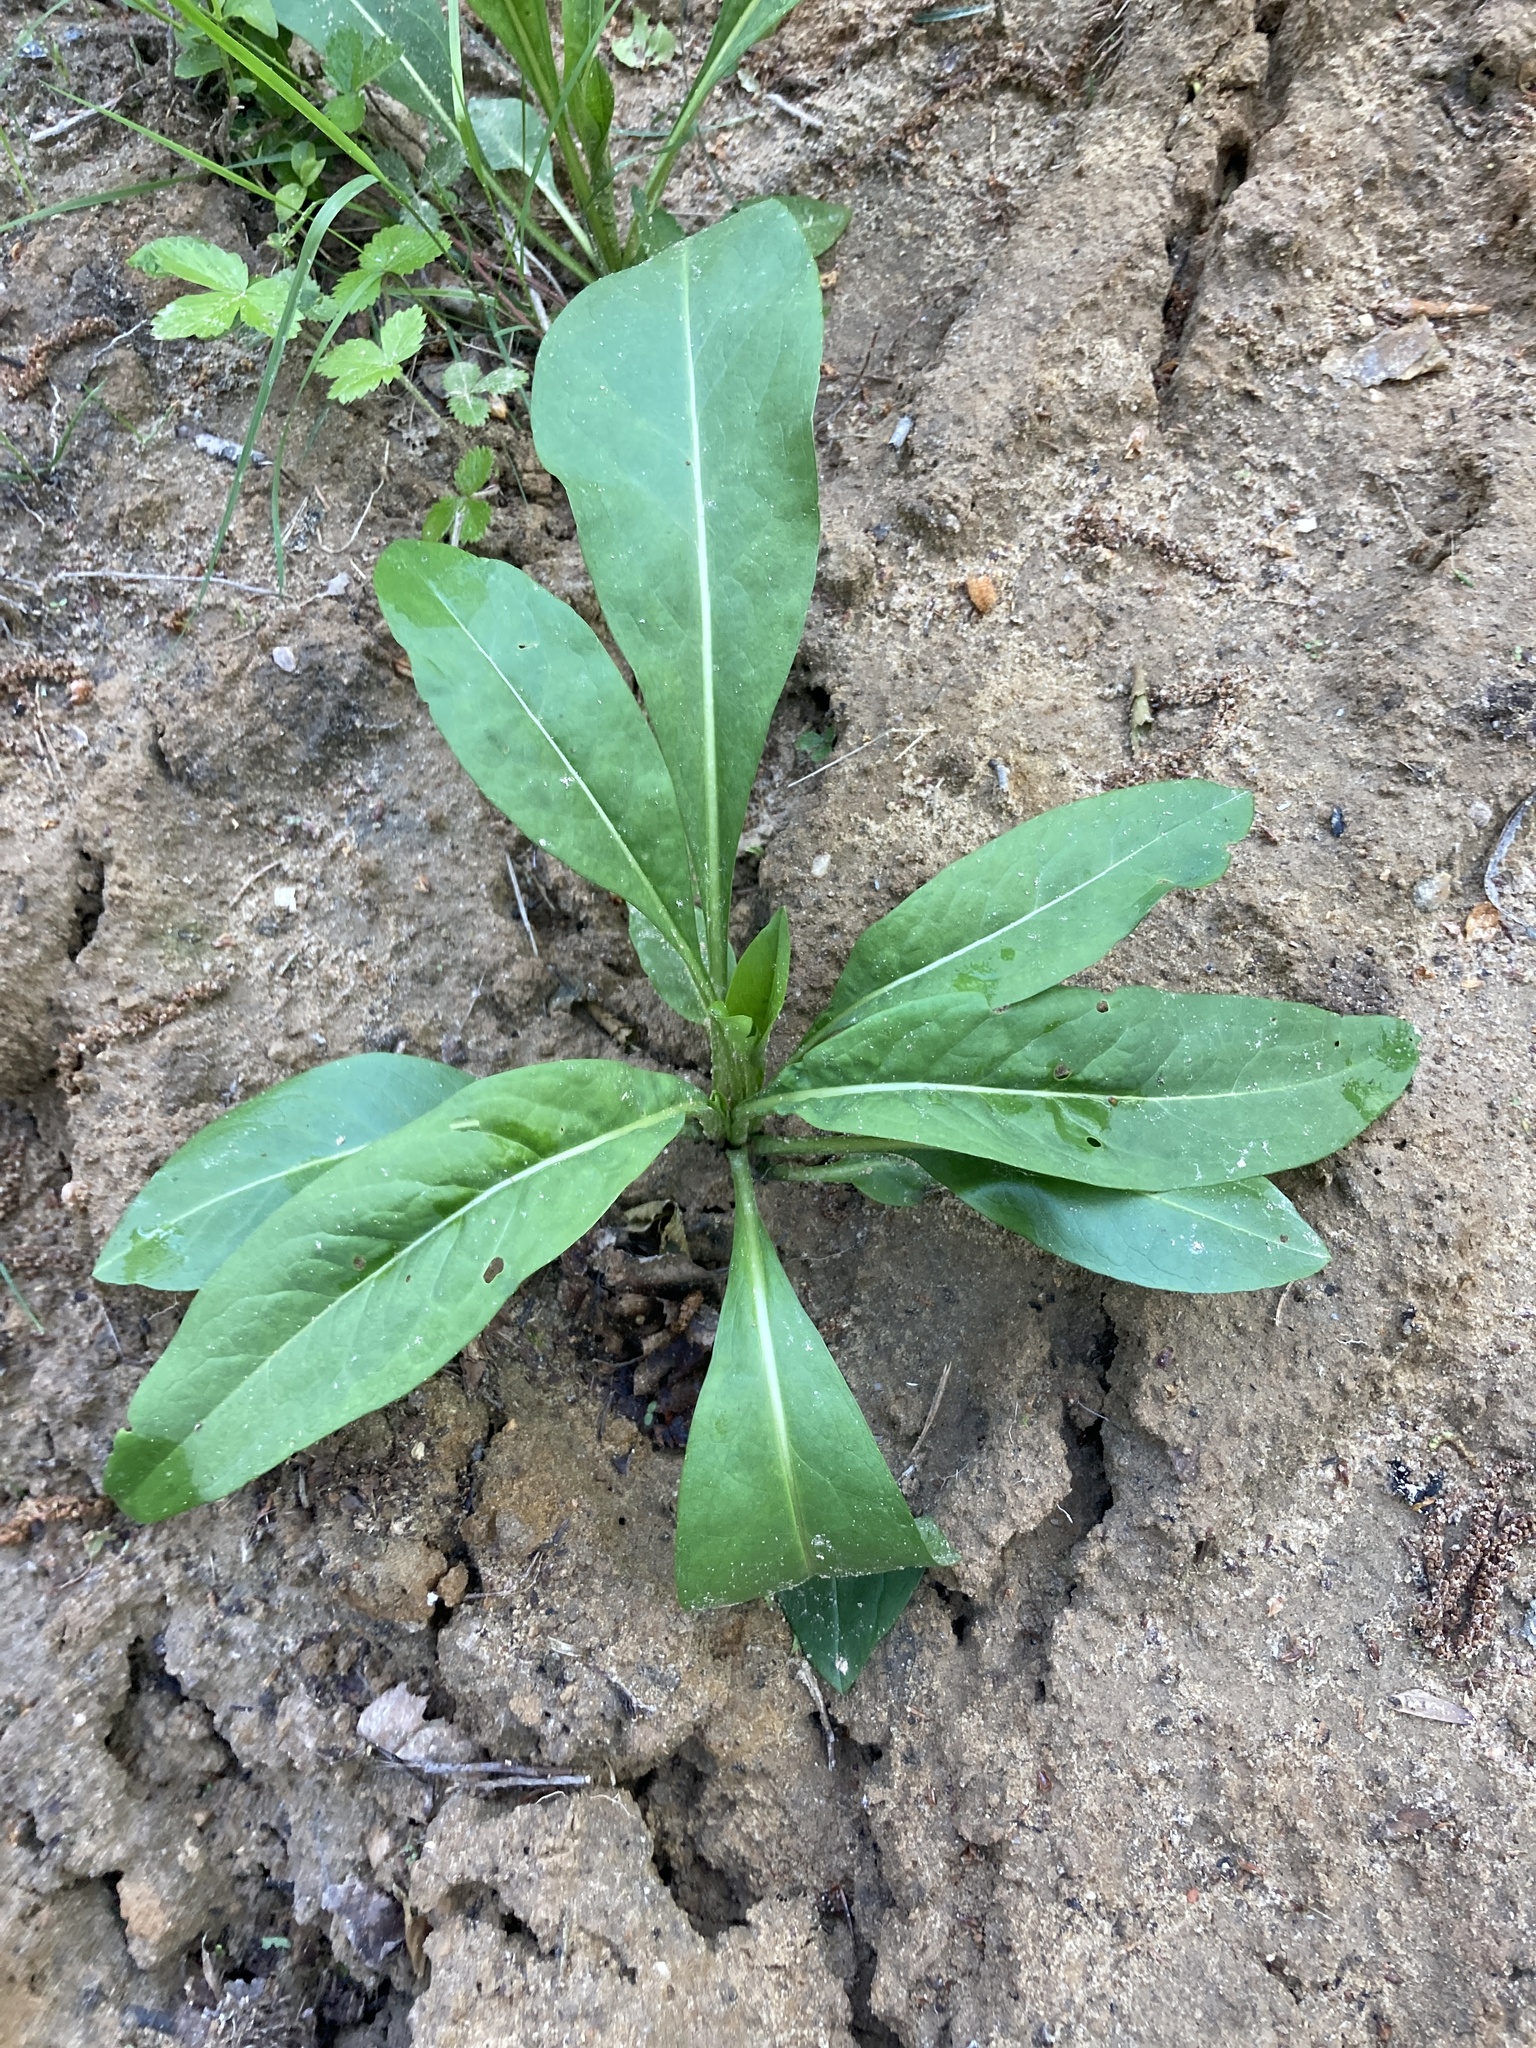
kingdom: Plantae
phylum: Tracheophyta
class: Magnoliopsida
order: Dipsacales
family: Caprifoliaceae
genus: Succisa
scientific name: Succisa pratensis
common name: Devil's-bit
